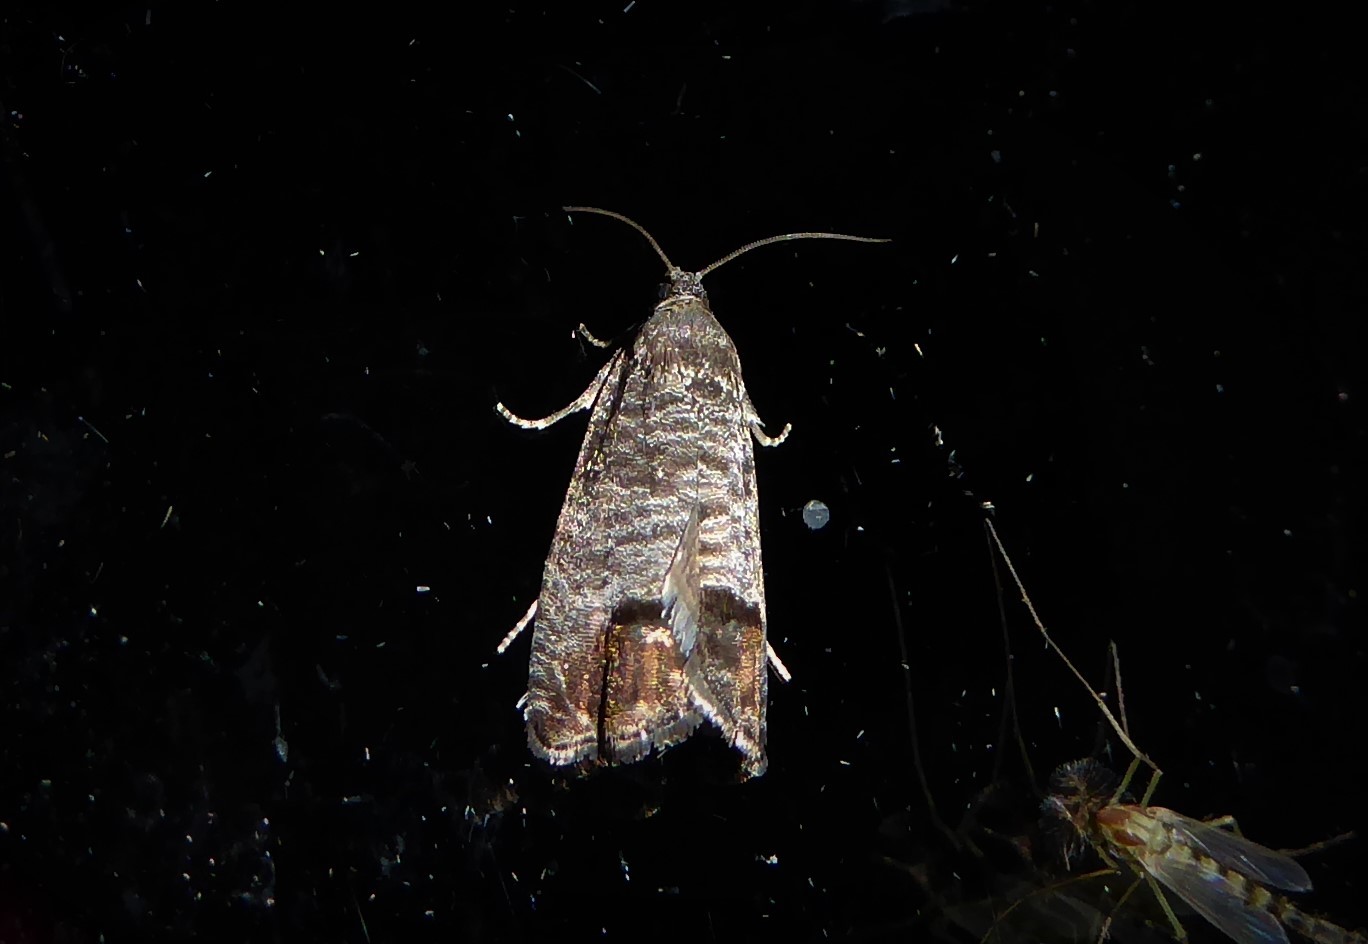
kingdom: Animalia
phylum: Arthropoda
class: Insecta
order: Lepidoptera
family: Tortricidae
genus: Cydia
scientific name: Cydia pomonella
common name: Codling moth
